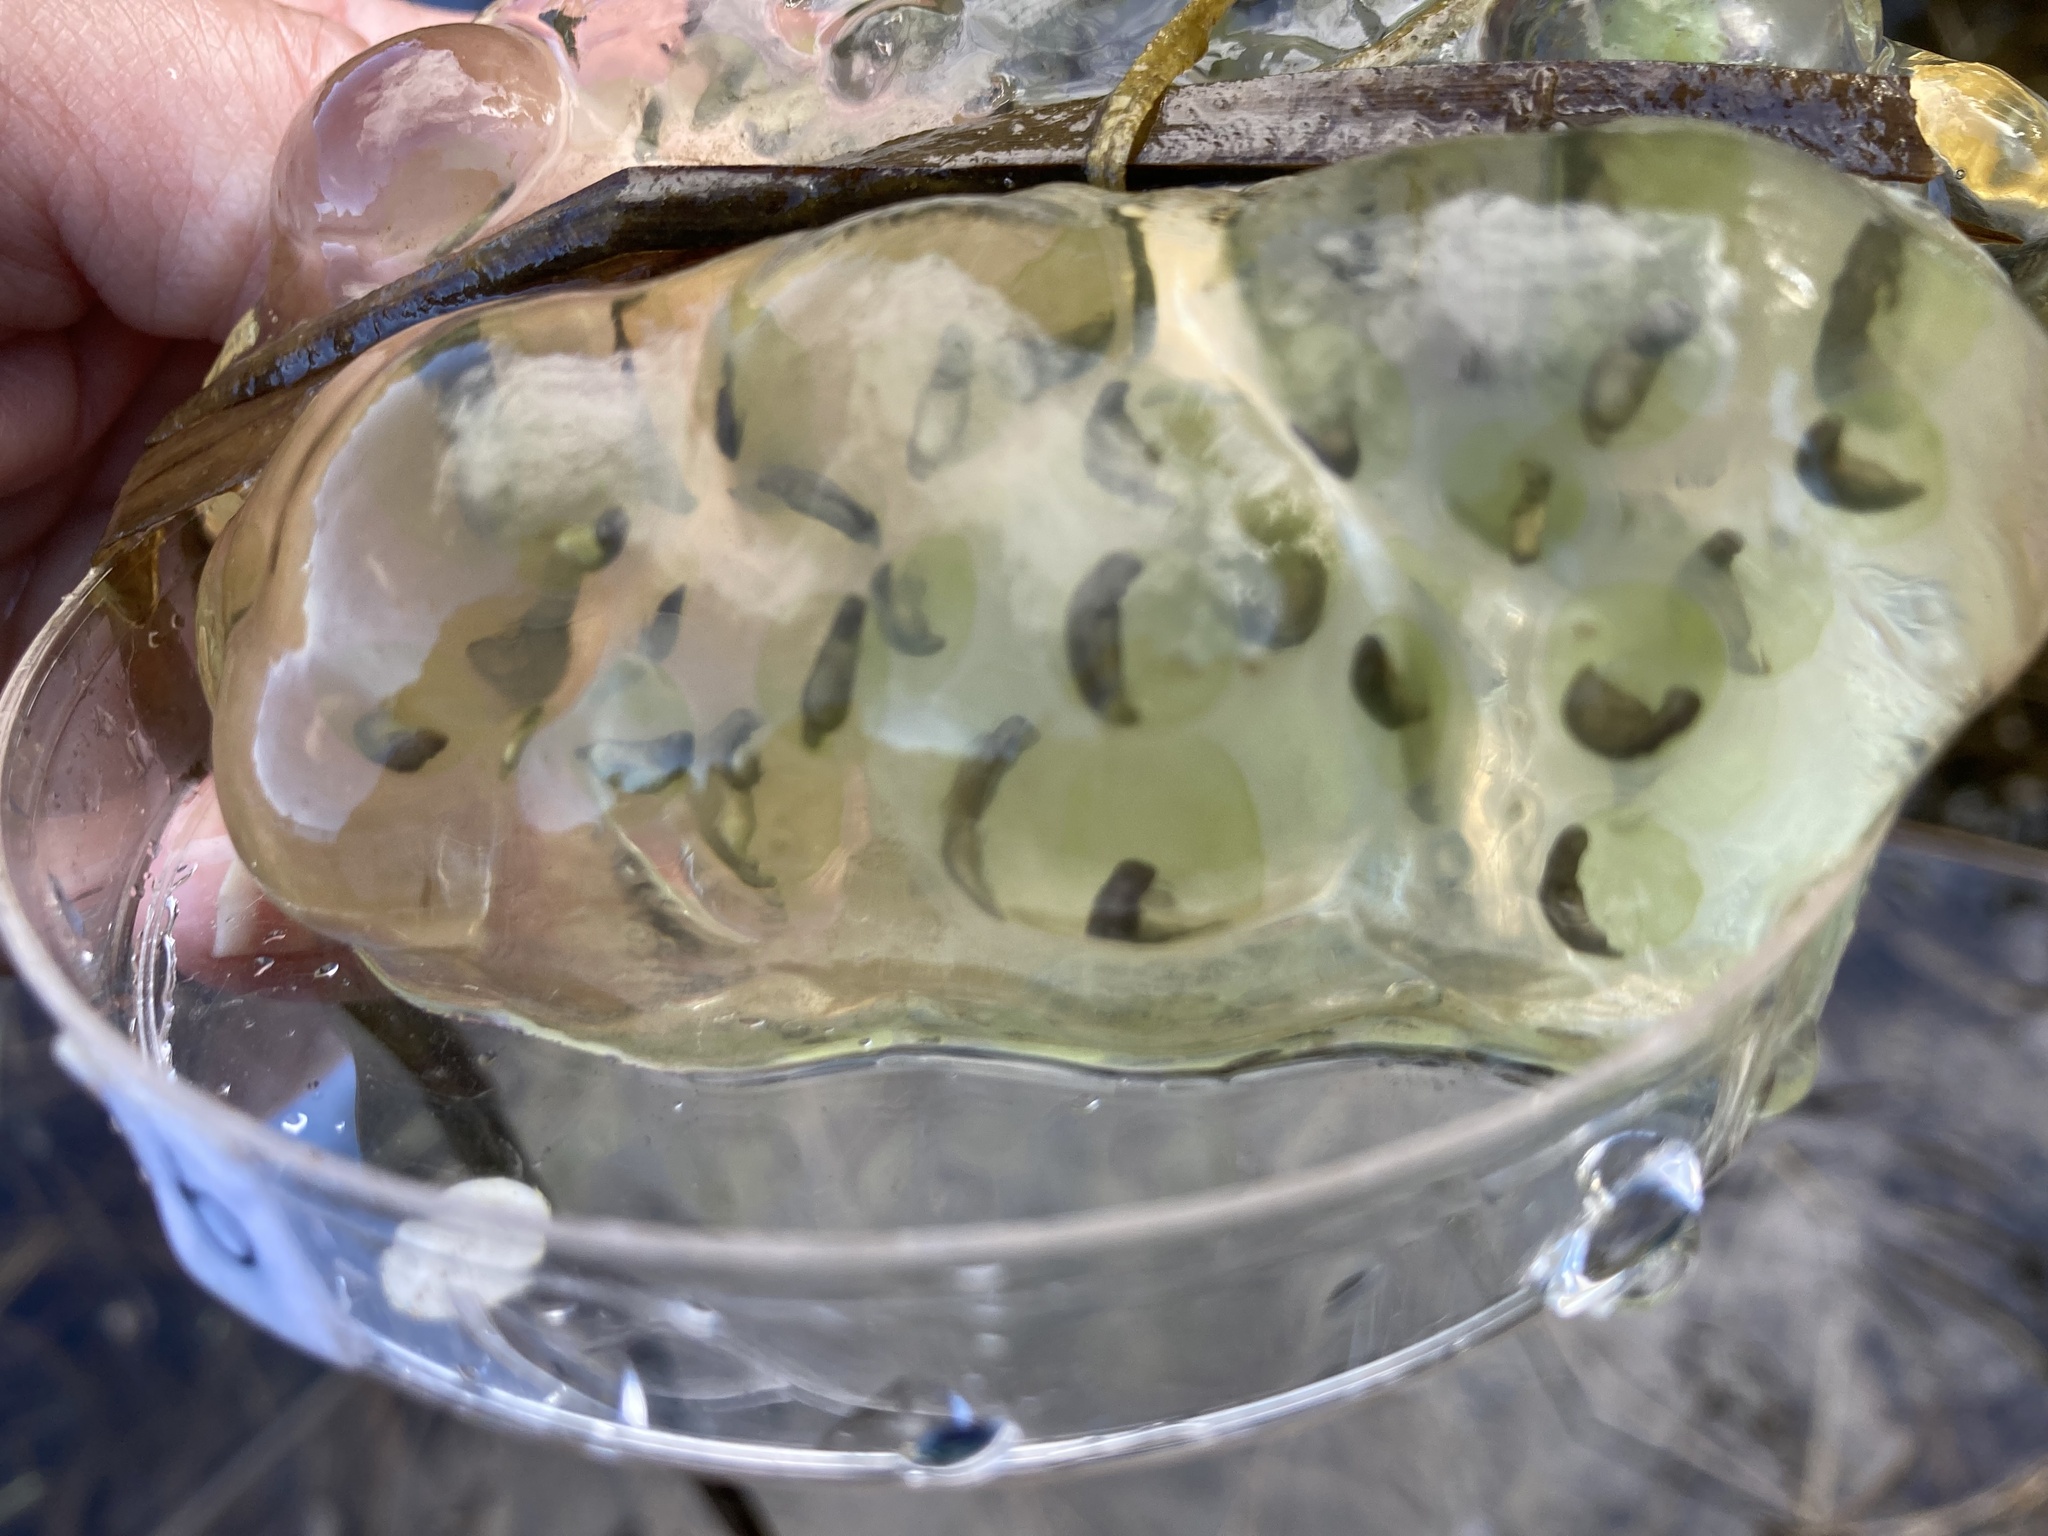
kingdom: Animalia
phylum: Chordata
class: Amphibia
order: Caudata
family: Ambystomatidae
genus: Ambystoma
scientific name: Ambystoma maculatum
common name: Spotted salamander
